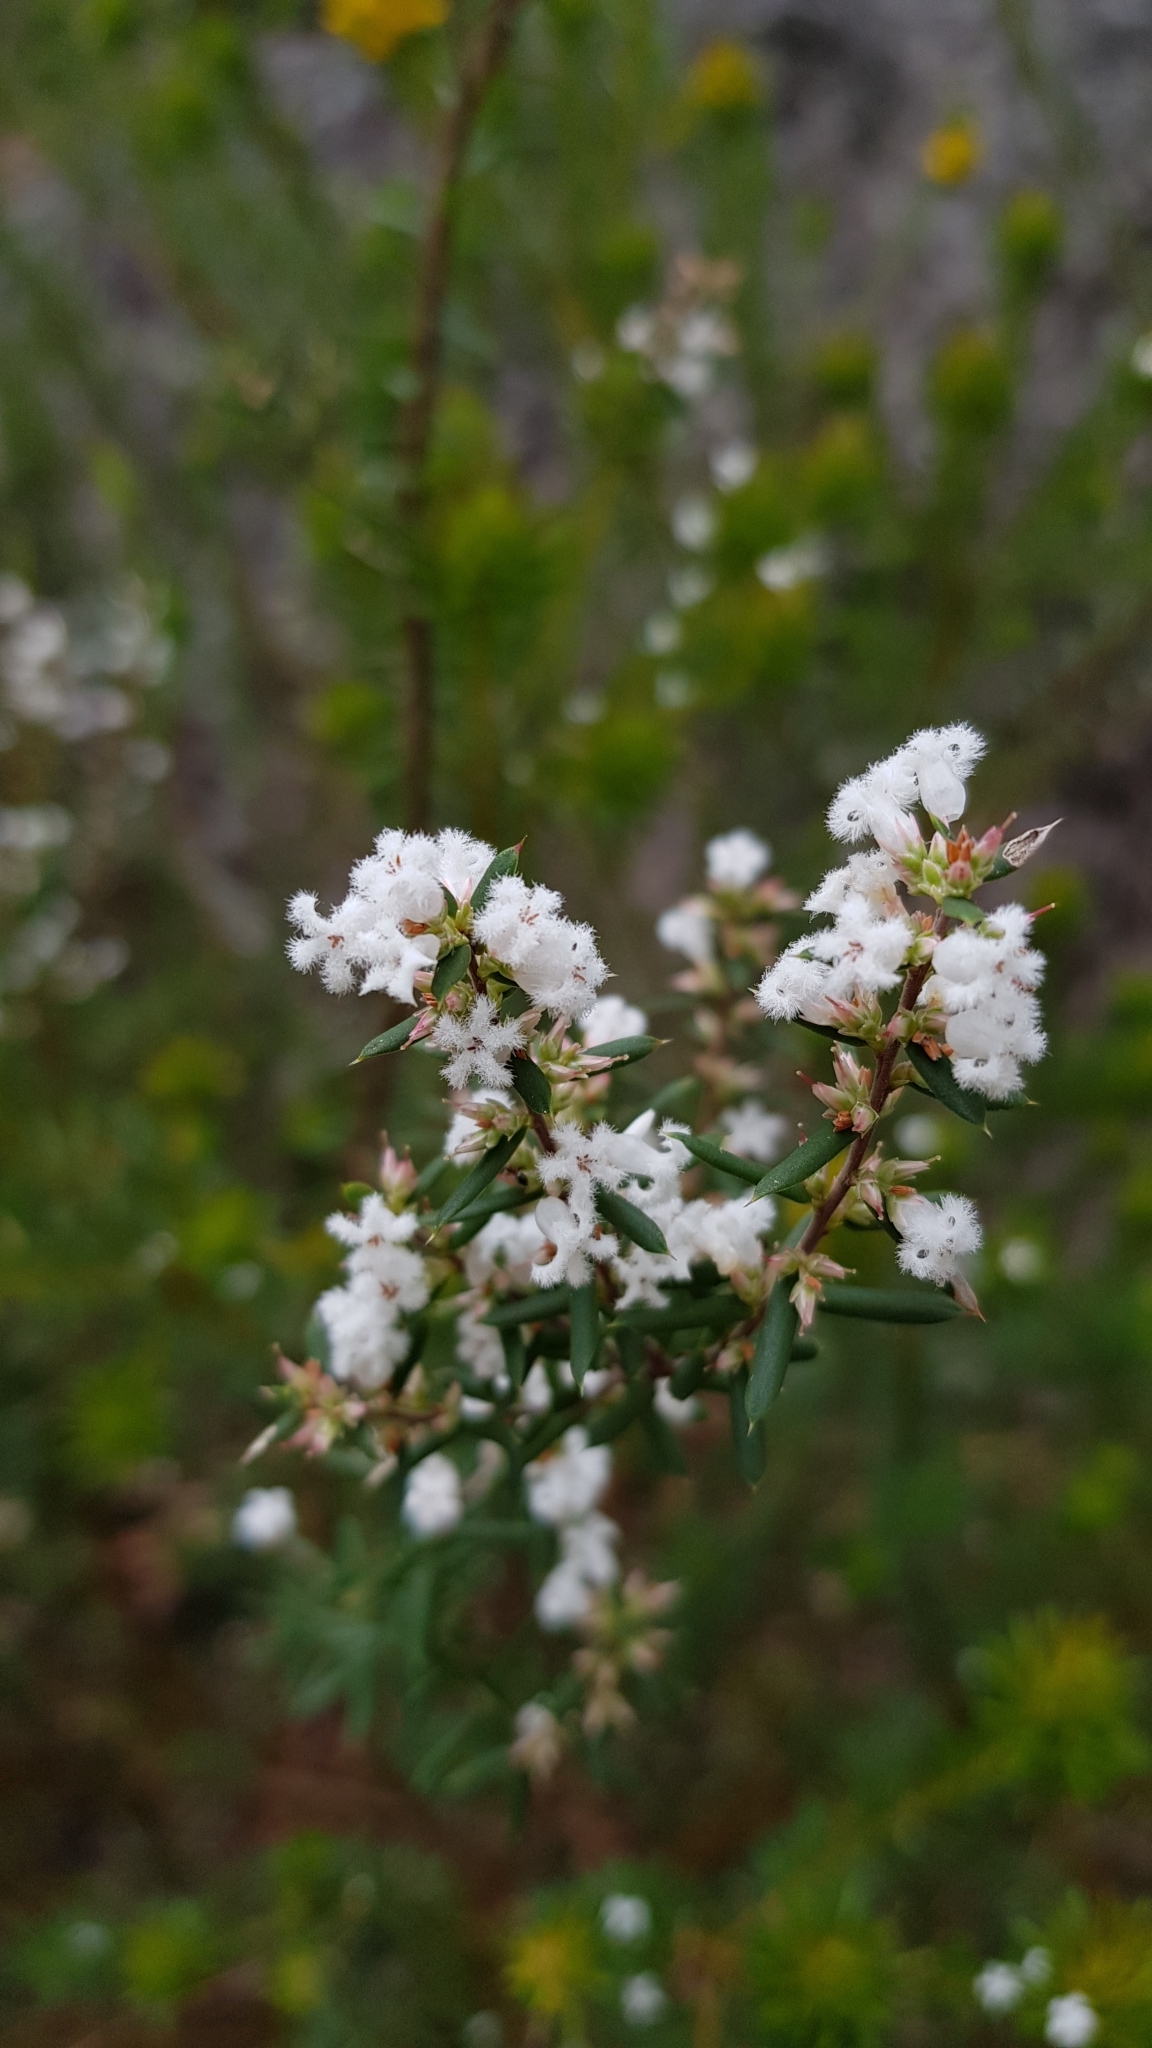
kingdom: Plantae
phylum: Tracheophyta
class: Magnoliopsida
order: Ericales
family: Ericaceae
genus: Styphelia
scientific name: Styphelia ericoides
